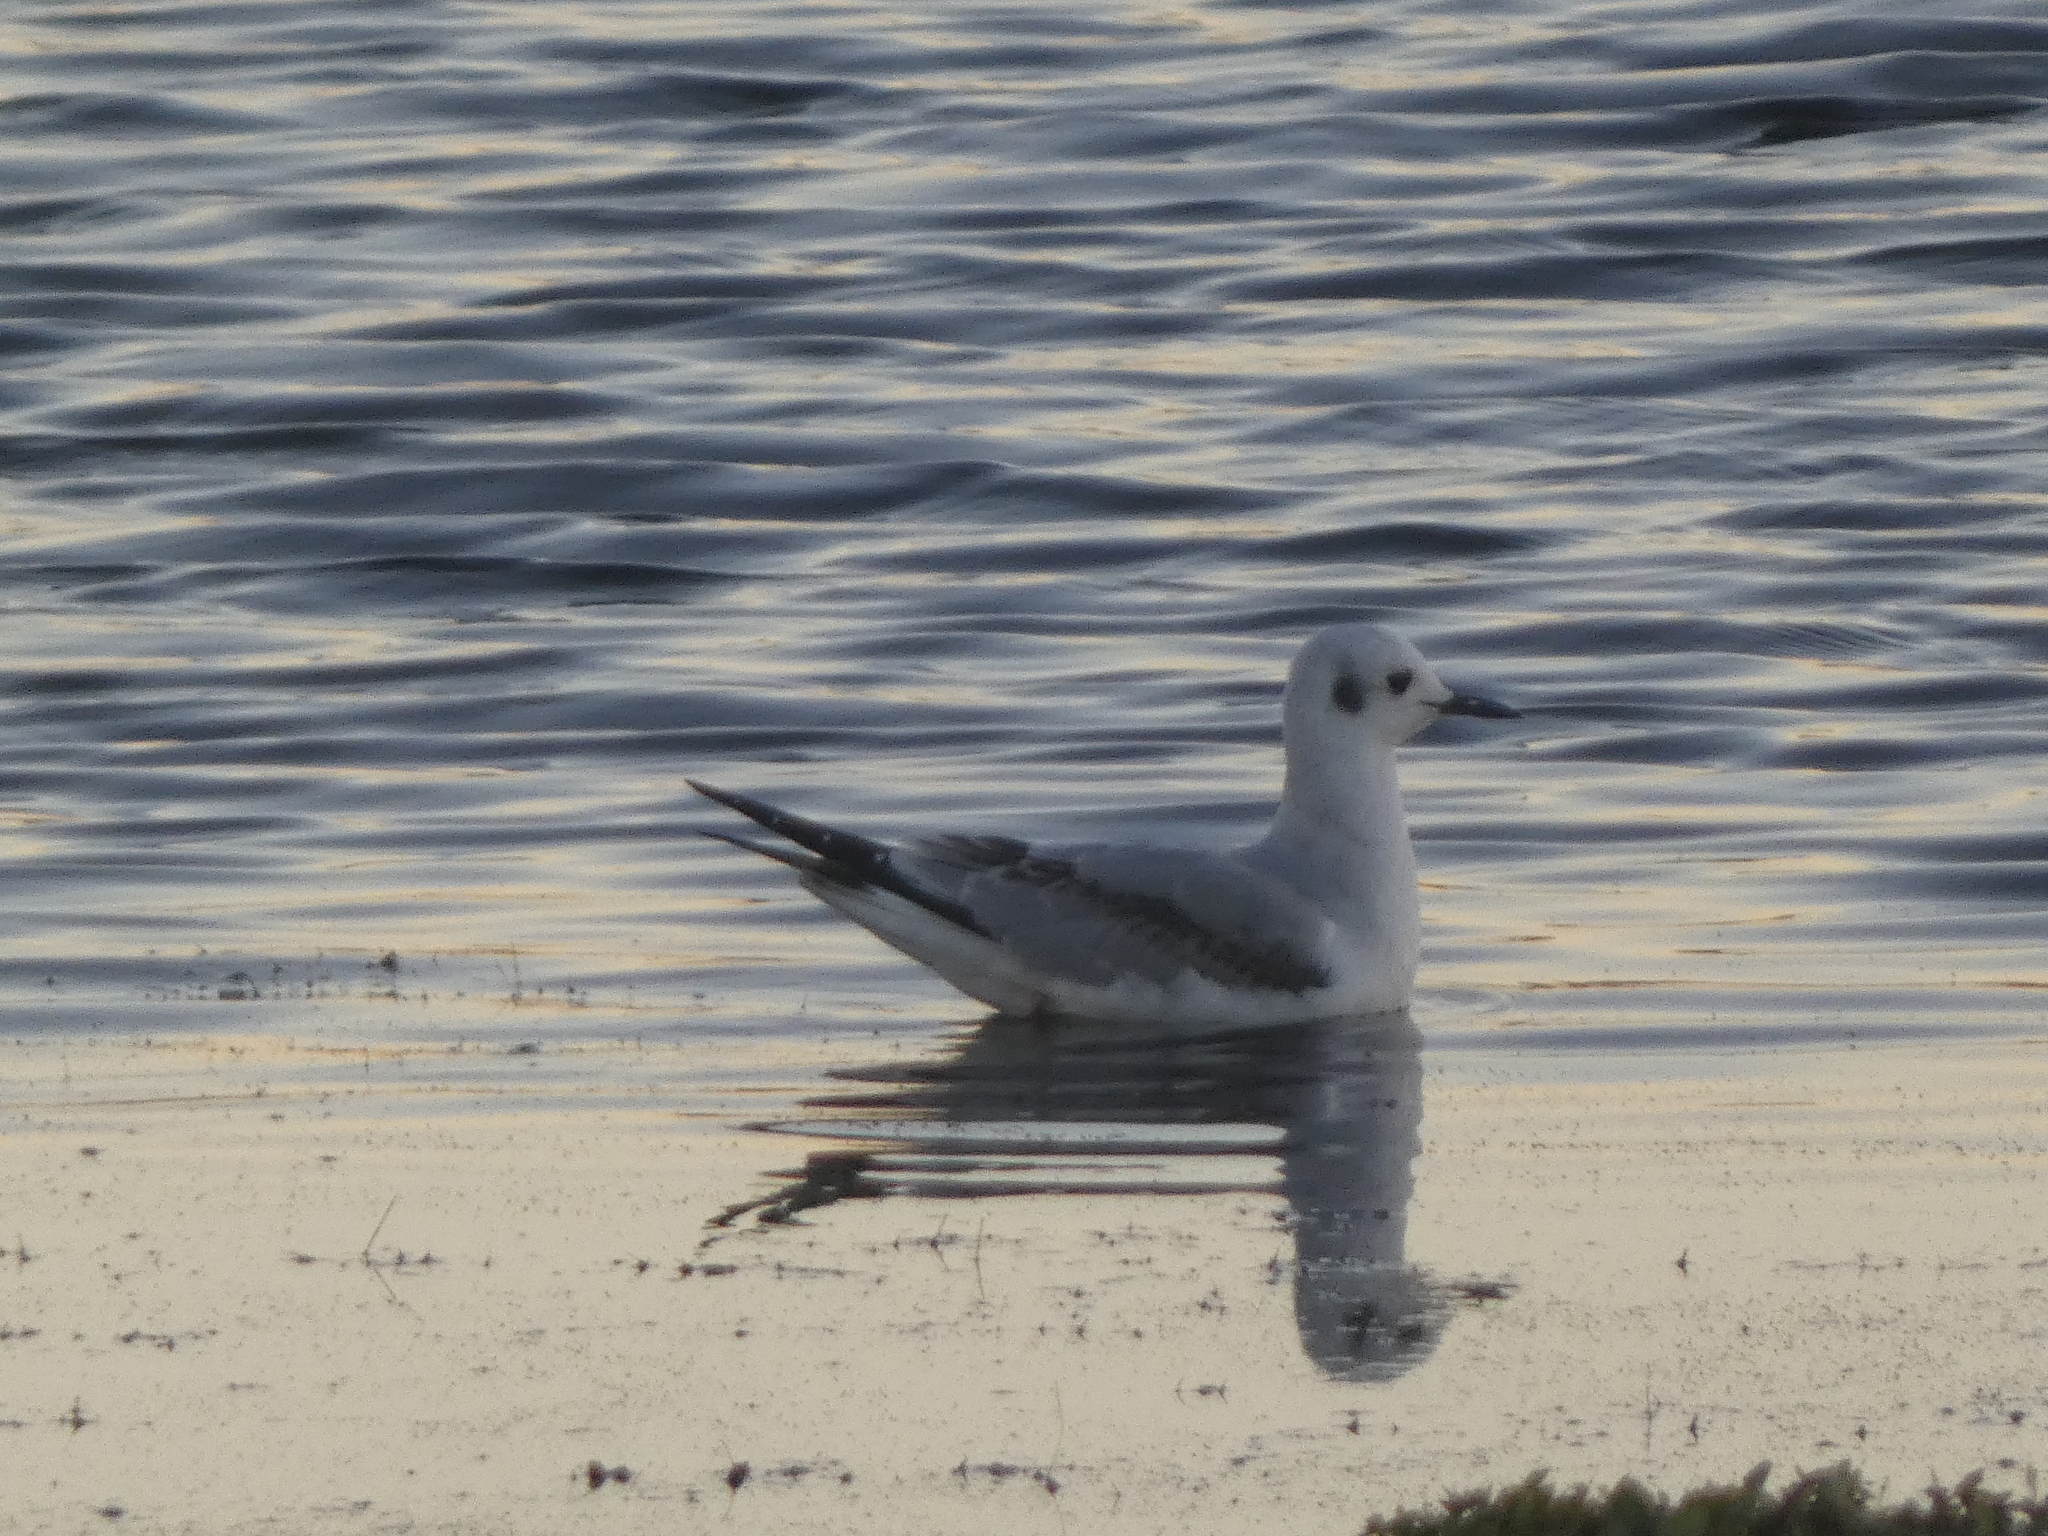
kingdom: Animalia
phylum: Chordata
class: Aves
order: Charadriiformes
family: Laridae
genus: Chroicocephalus
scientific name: Chroicocephalus philadelphia
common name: Bonaparte's gull
